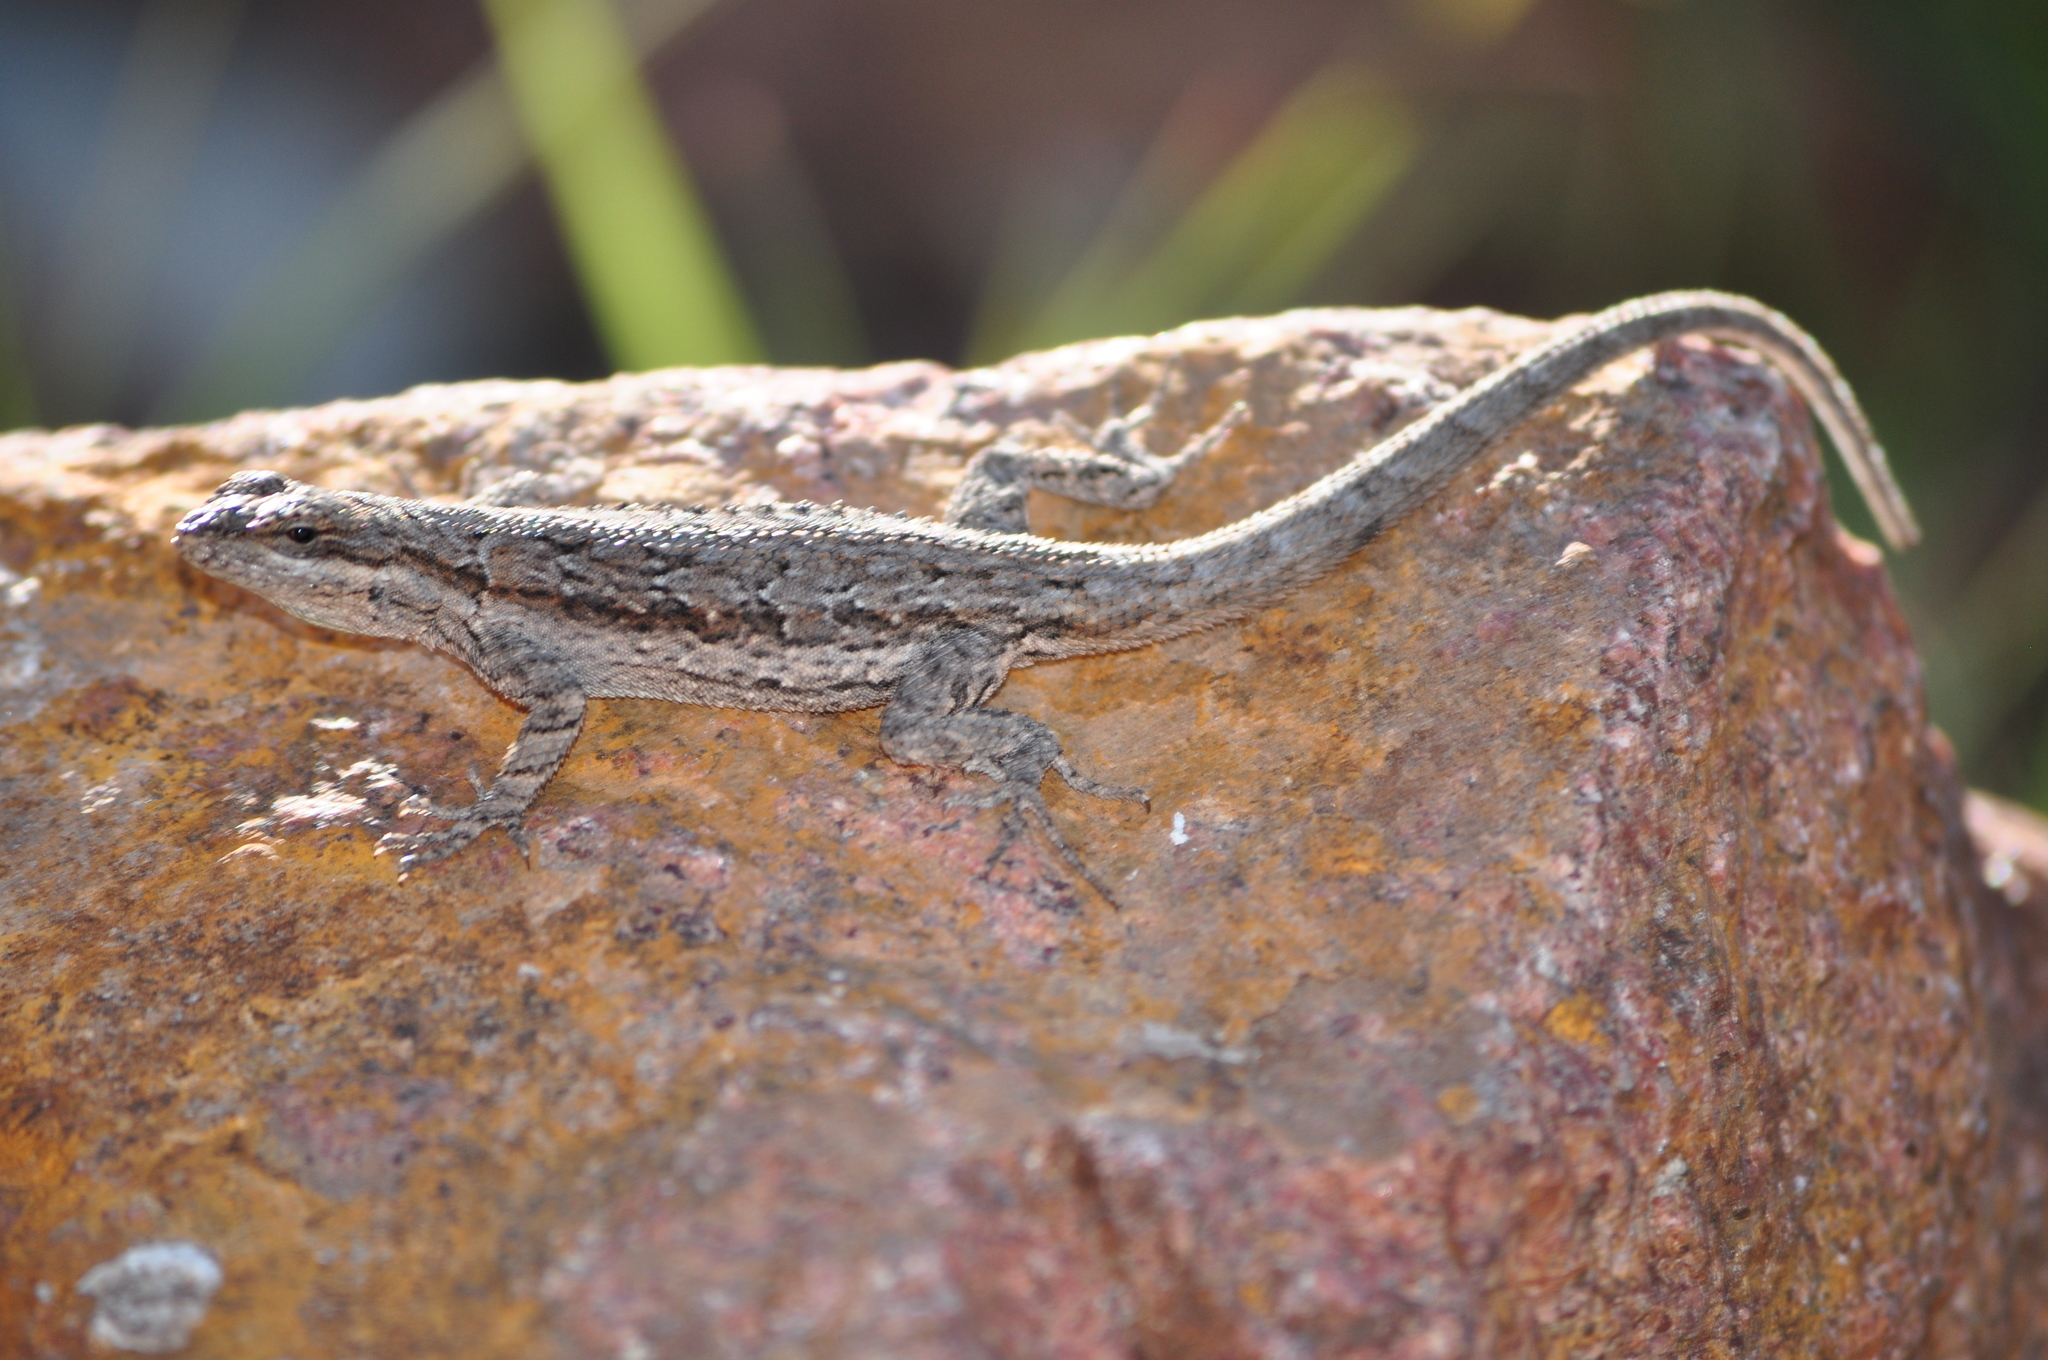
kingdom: Animalia
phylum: Chordata
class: Squamata
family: Phrynosomatidae
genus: Urosaurus
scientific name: Urosaurus ornatus
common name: Ornate tree lizard
